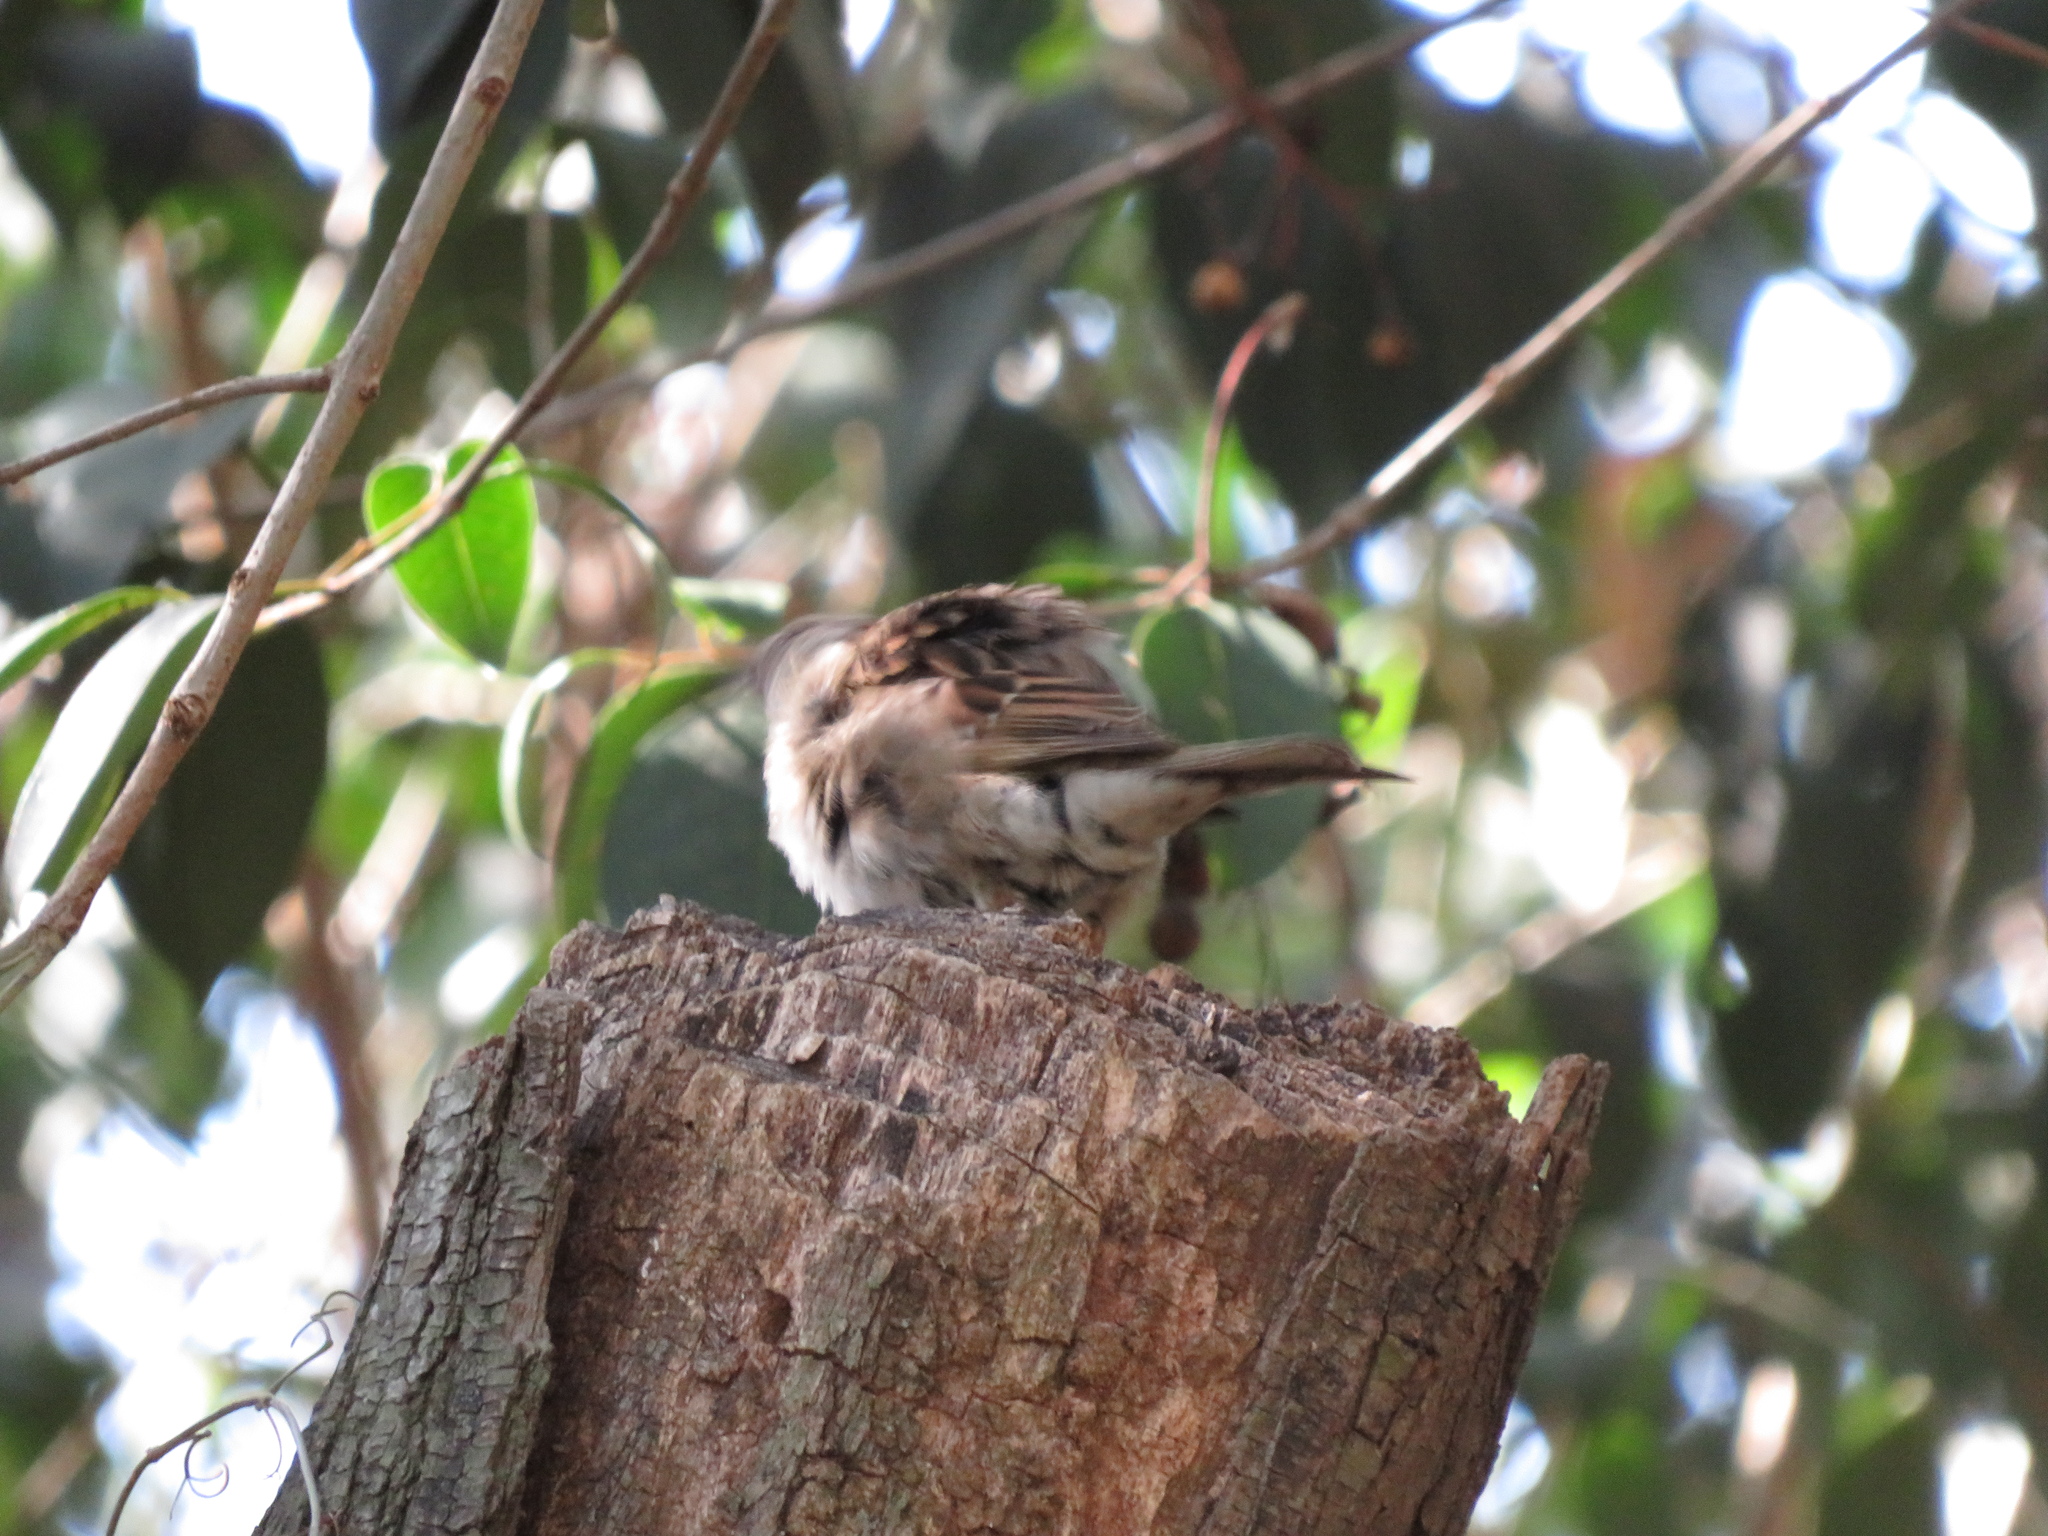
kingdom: Animalia
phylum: Chordata
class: Aves
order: Passeriformes
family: Passerellidae
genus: Zonotrichia
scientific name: Zonotrichia capensis
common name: Rufous-collared sparrow
